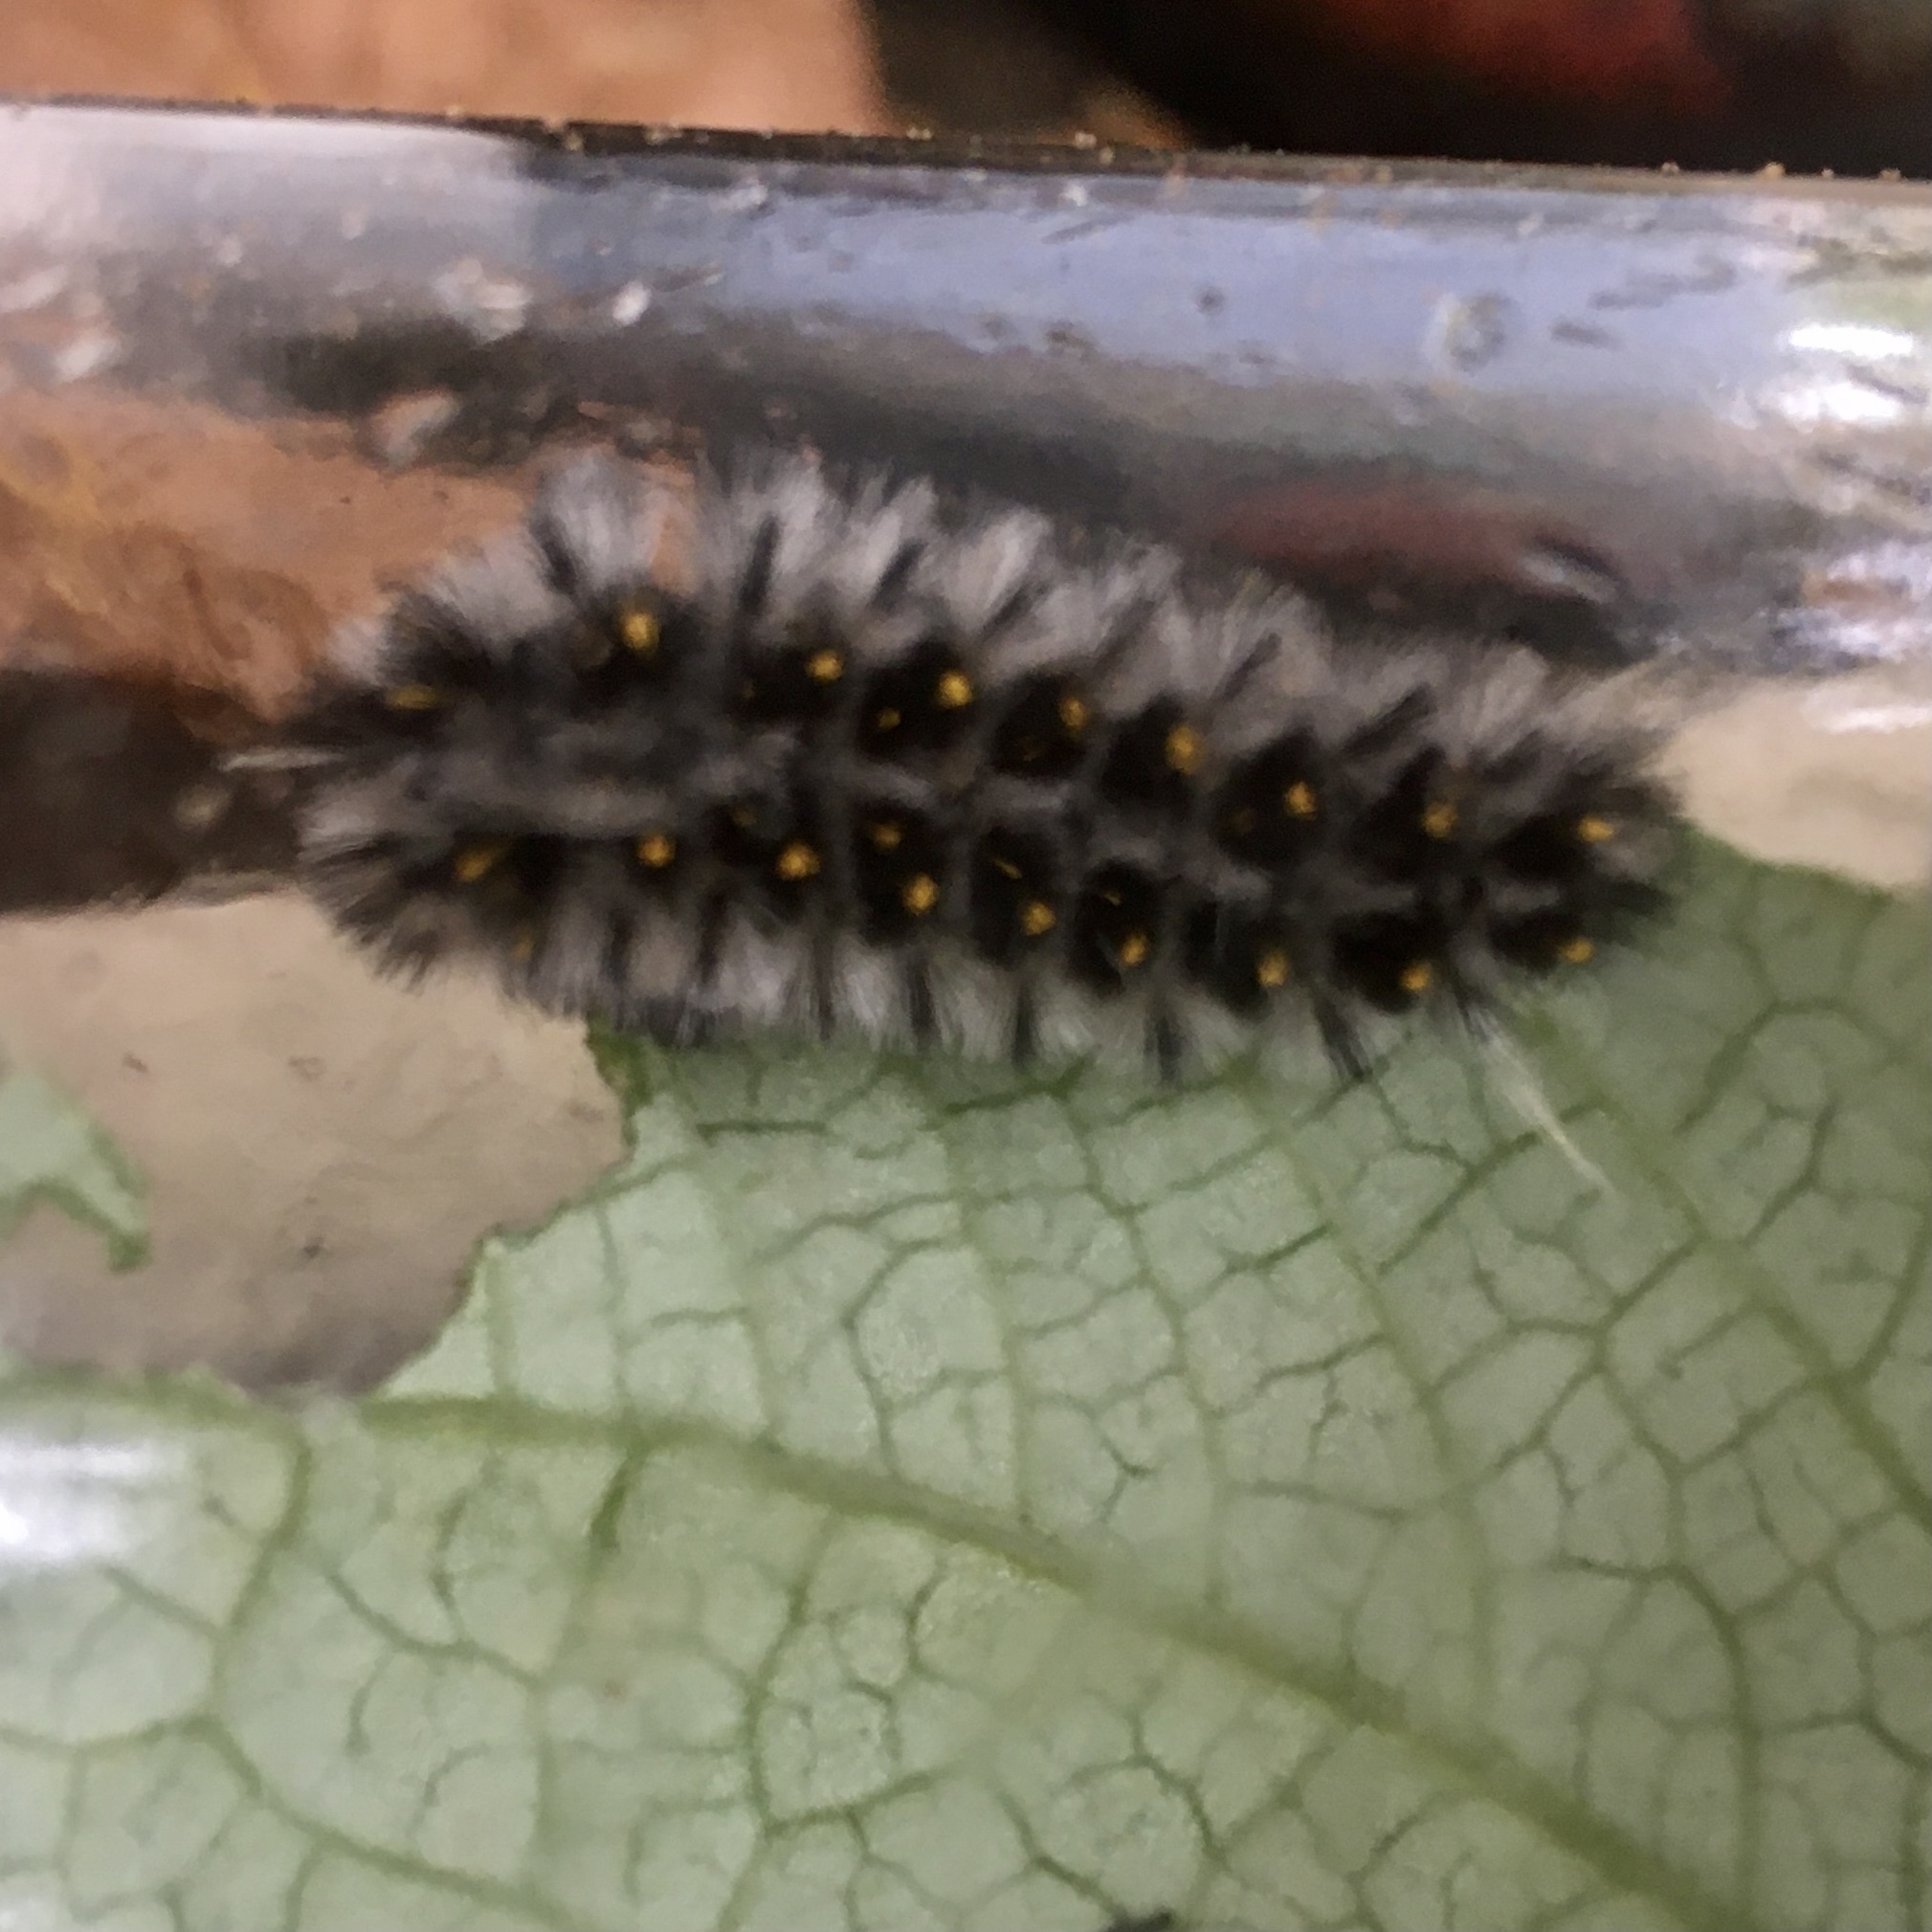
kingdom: Animalia
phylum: Arthropoda
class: Insecta
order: Lepidoptera
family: Erebidae
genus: Lophocampa
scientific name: Lophocampa roseata
